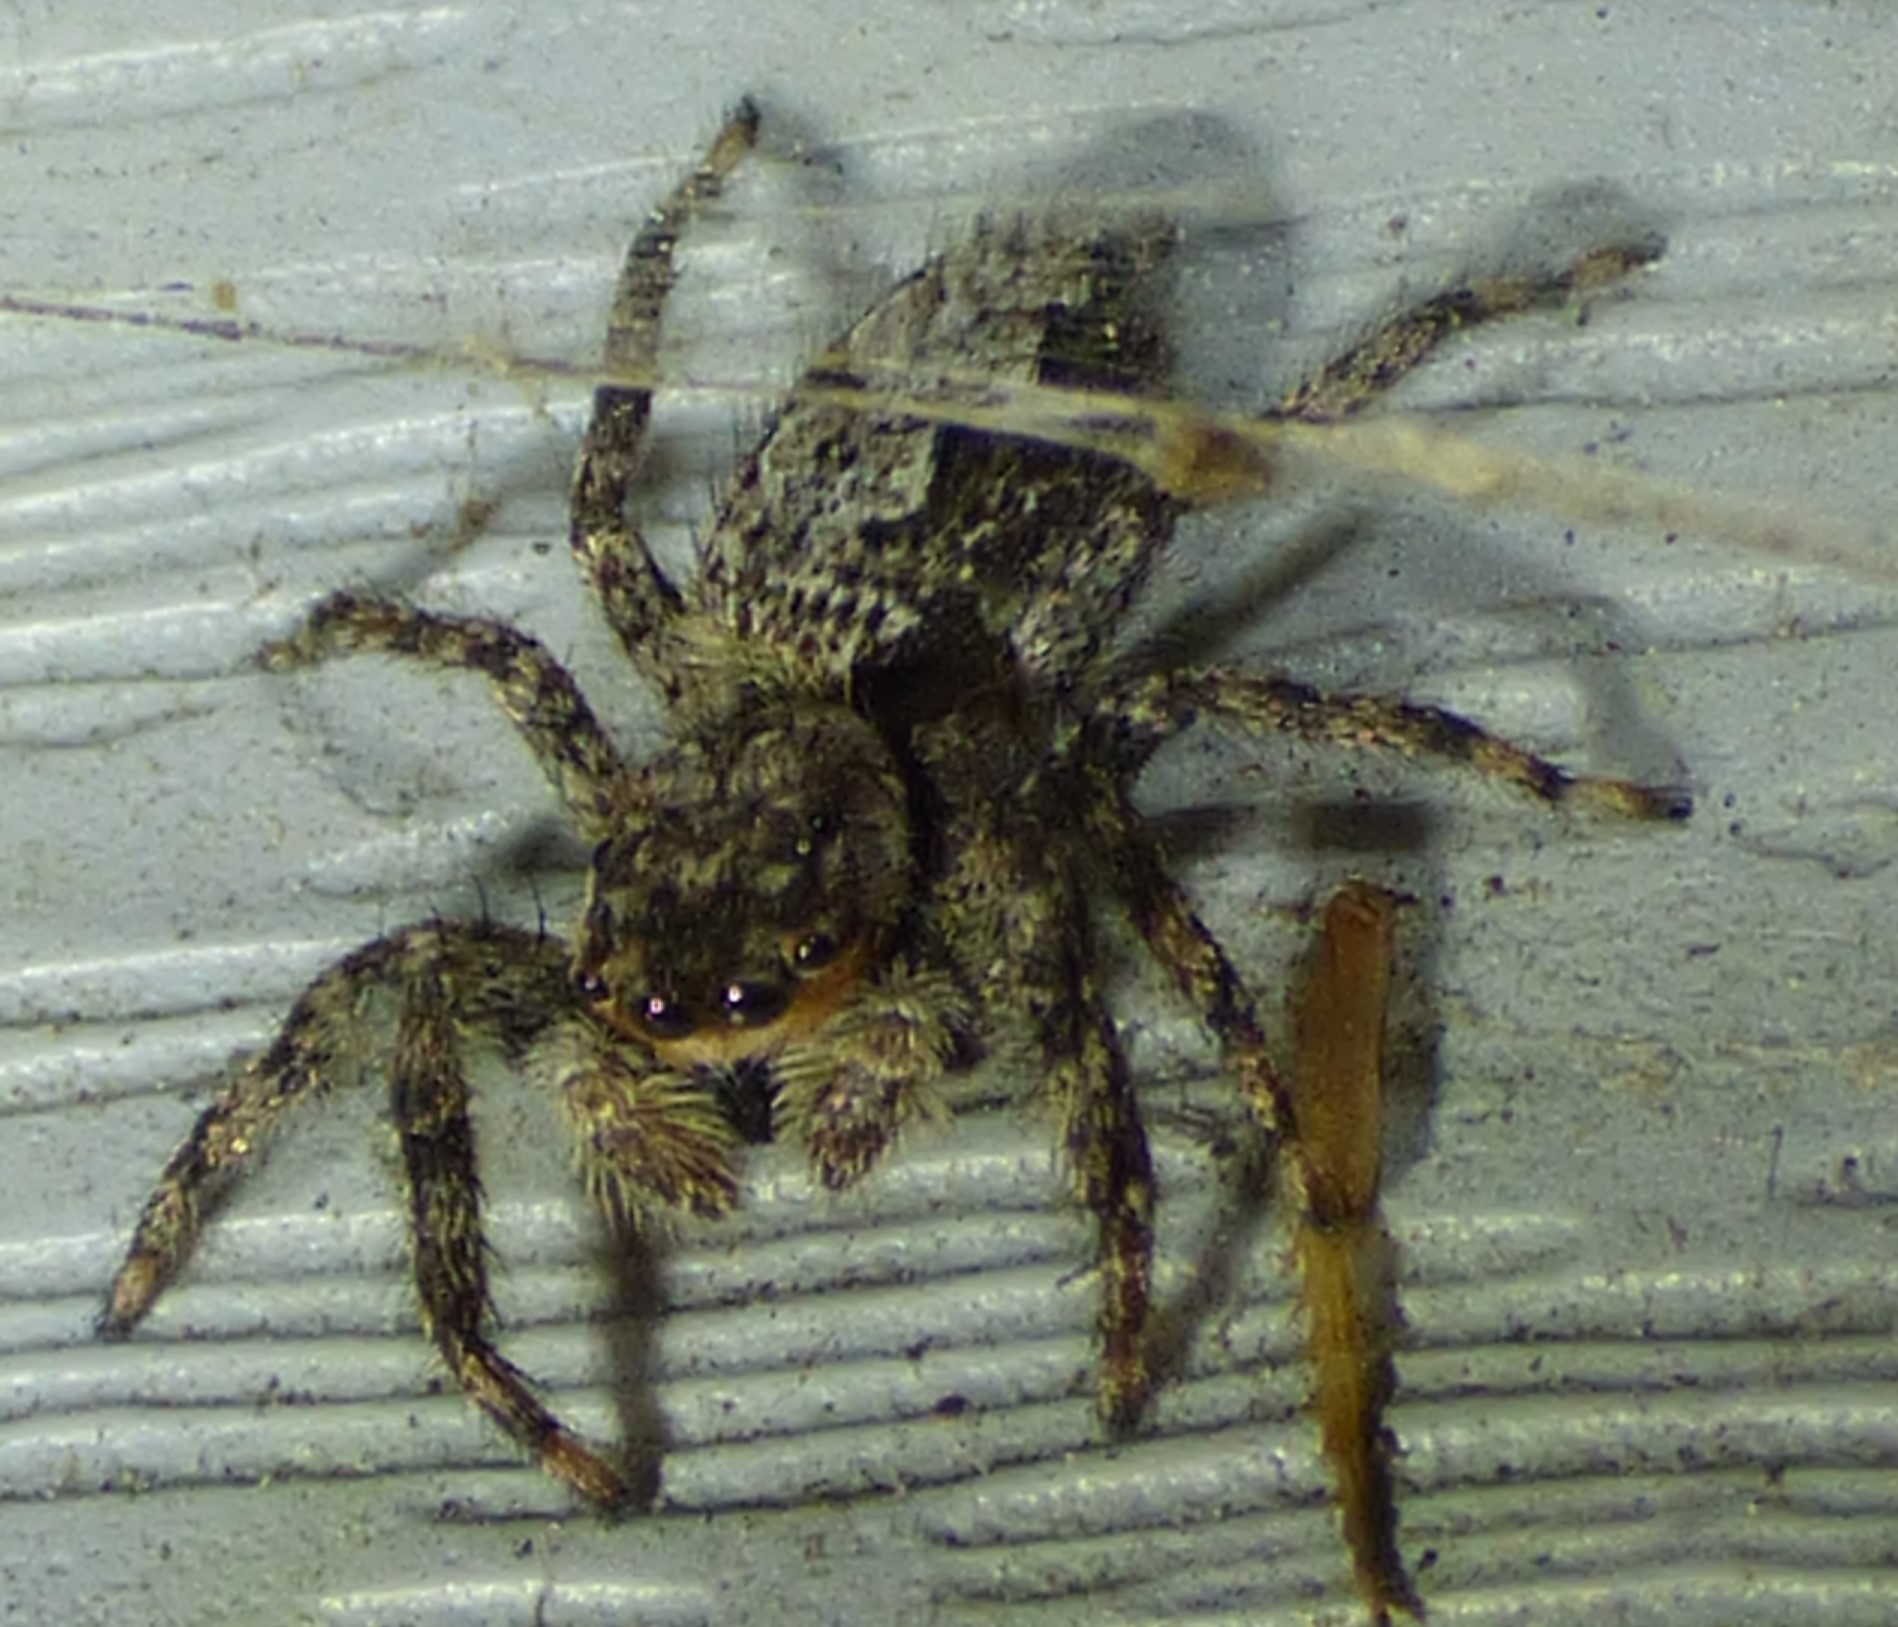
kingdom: Animalia
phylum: Arthropoda
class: Arachnida
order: Araneae
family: Salticidae
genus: Platycryptus
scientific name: Platycryptus undatus
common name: Tan jumping spider
